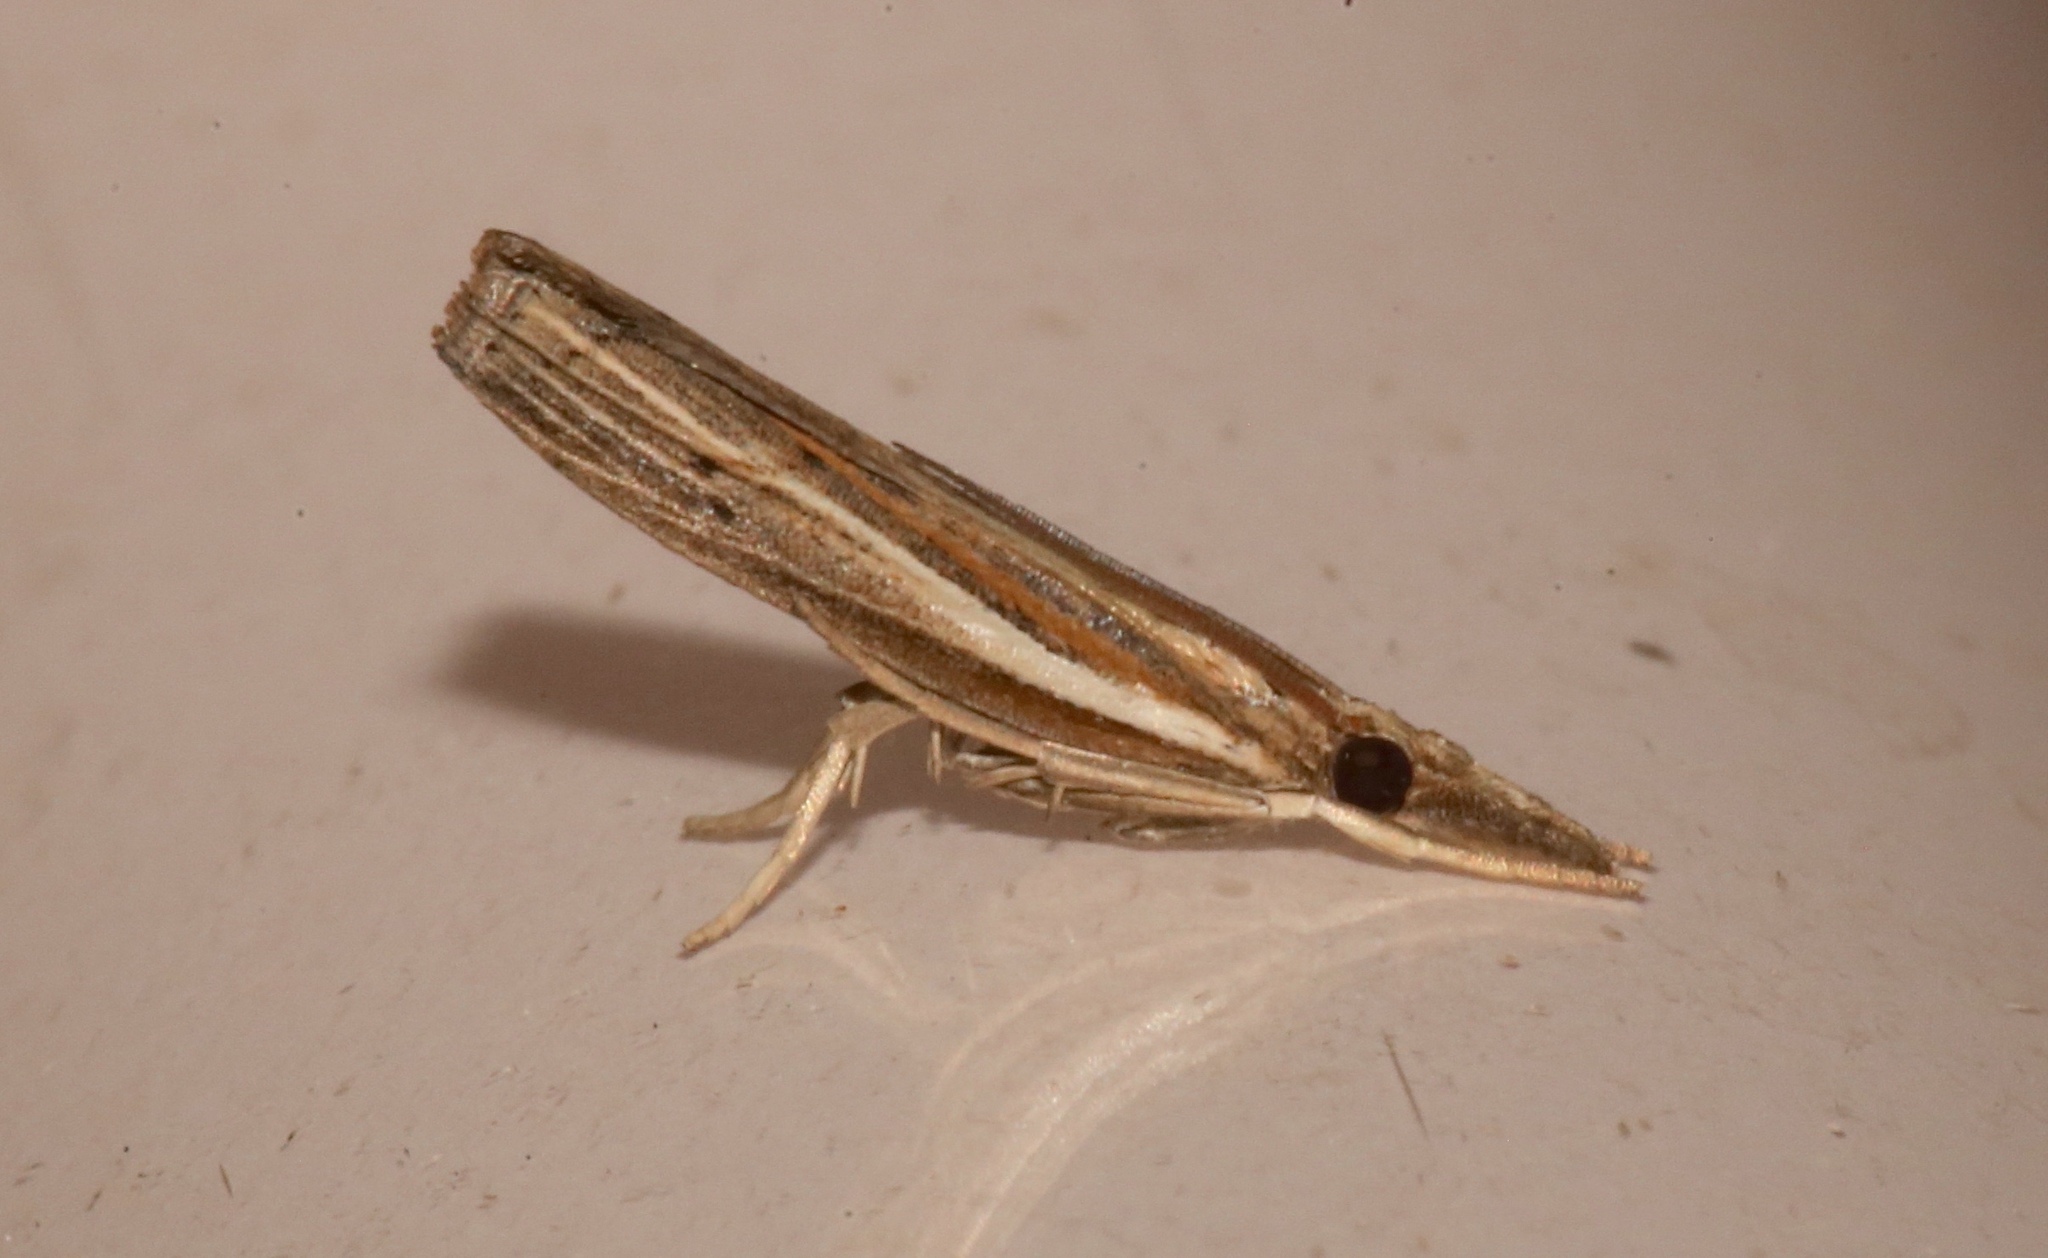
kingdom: Animalia
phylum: Arthropoda
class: Insecta
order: Lepidoptera
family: Crambidae
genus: Fissicrambus
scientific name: Fissicrambus fissiradiellus
